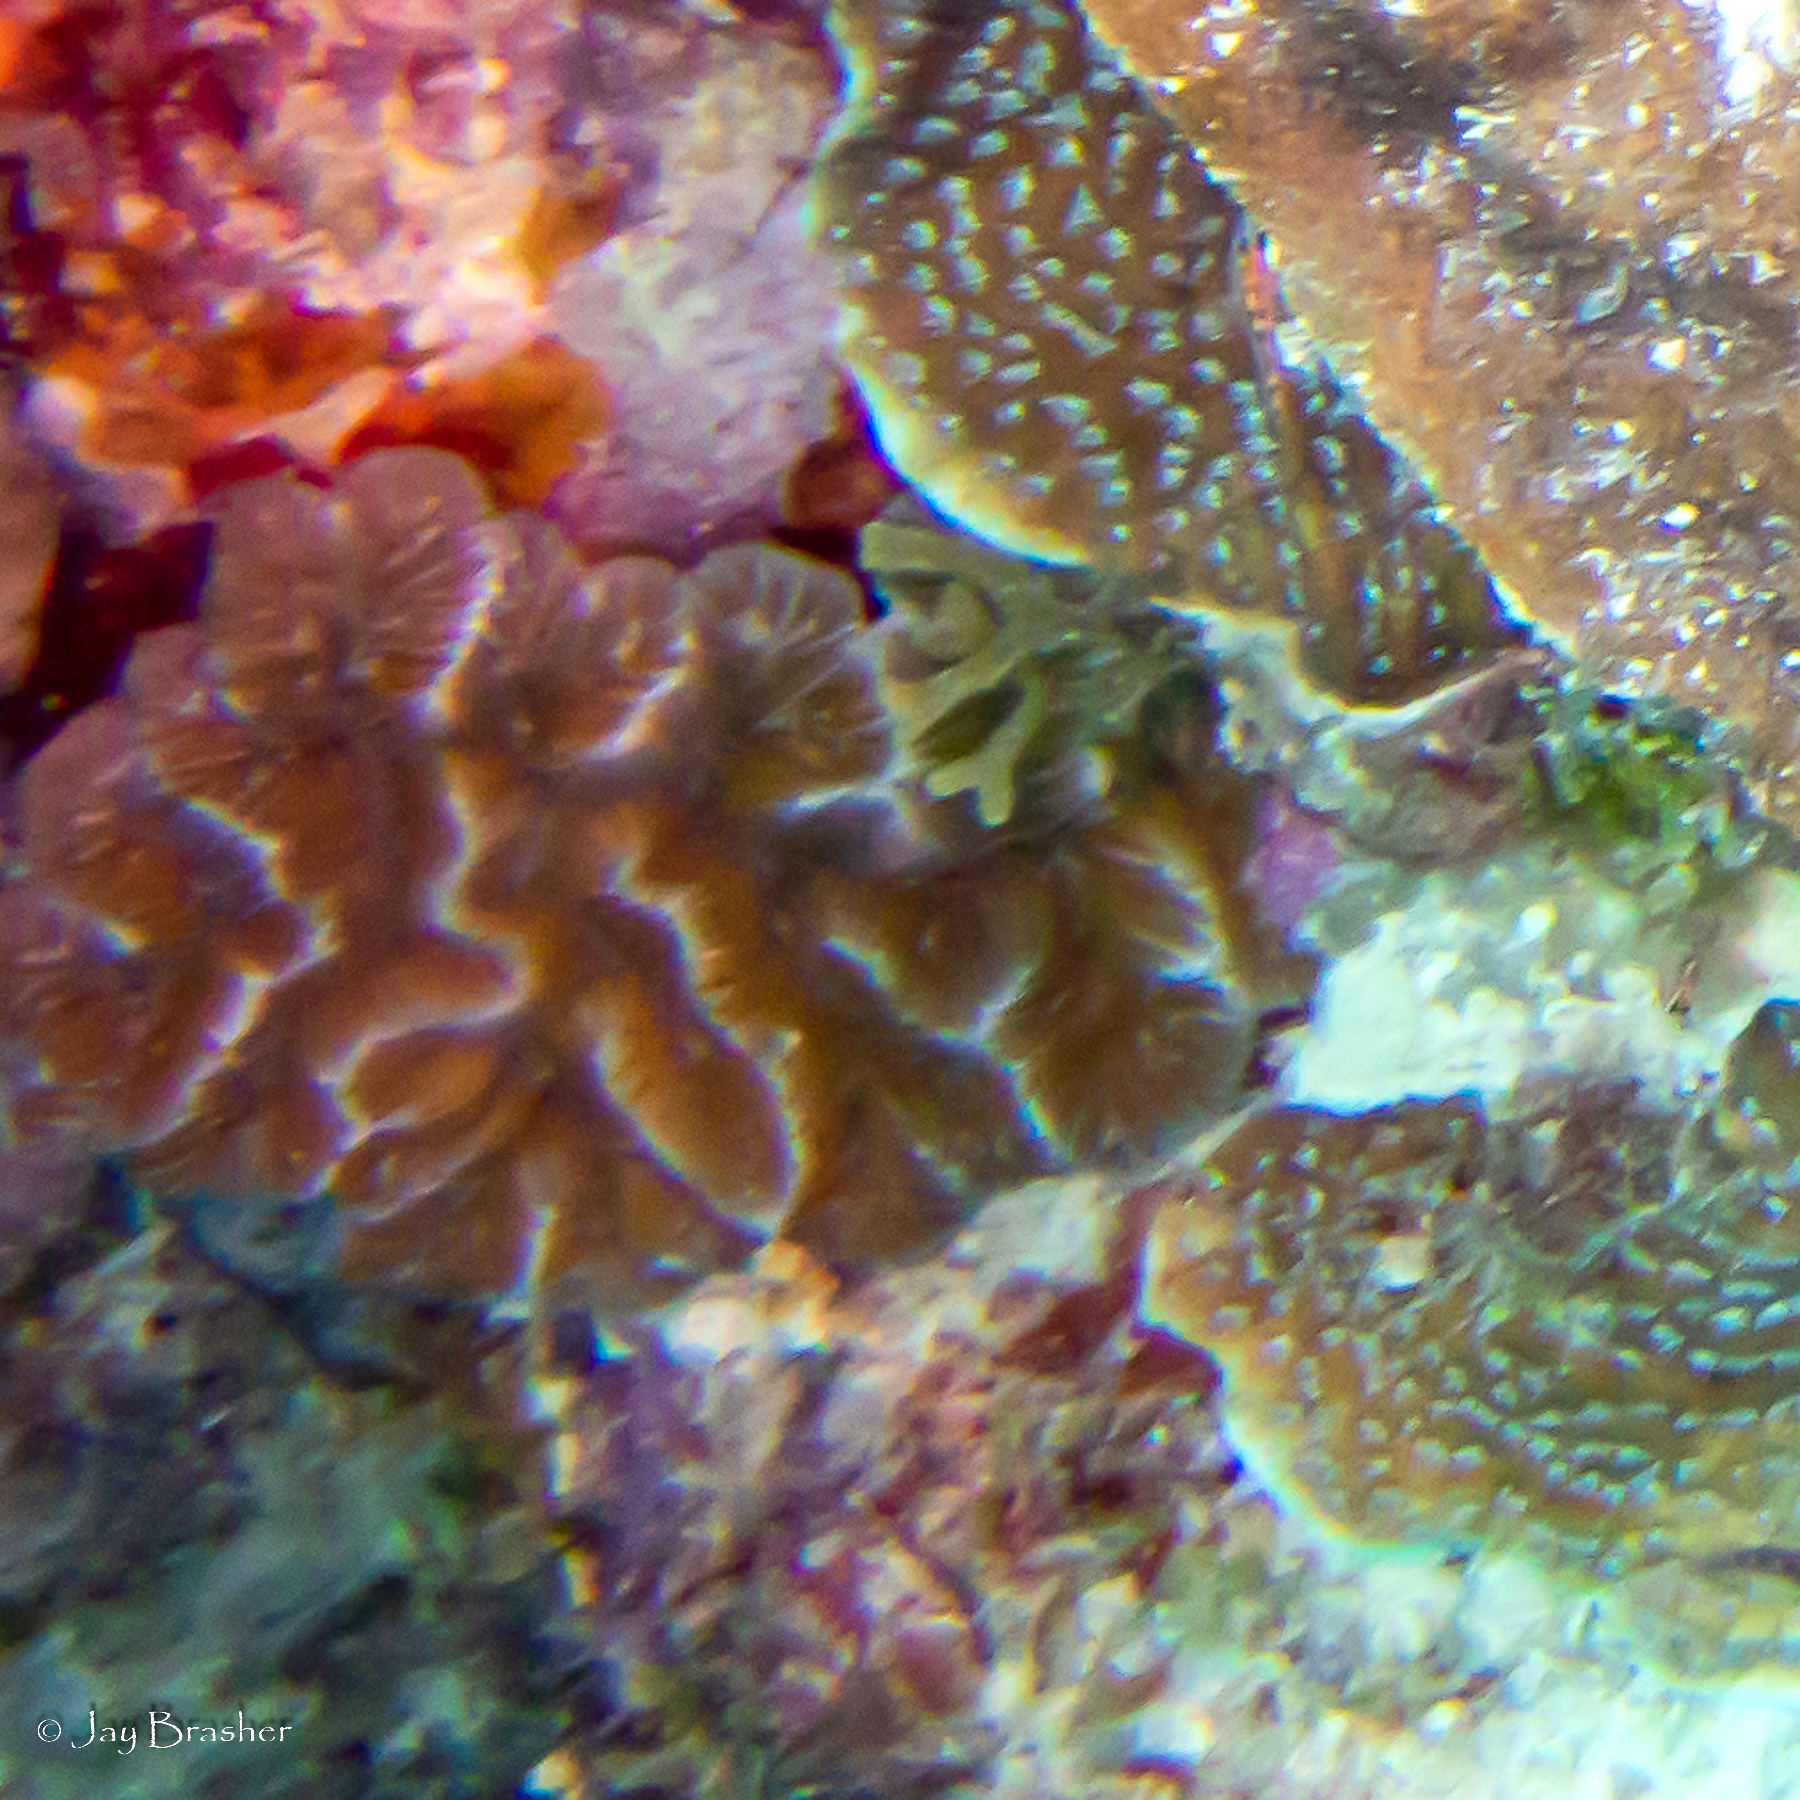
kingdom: Animalia
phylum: Cnidaria
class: Anthozoa
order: Scleractinia
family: Meandrinidae
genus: Meandrina
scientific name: Meandrina meandrites
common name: Maze coral
